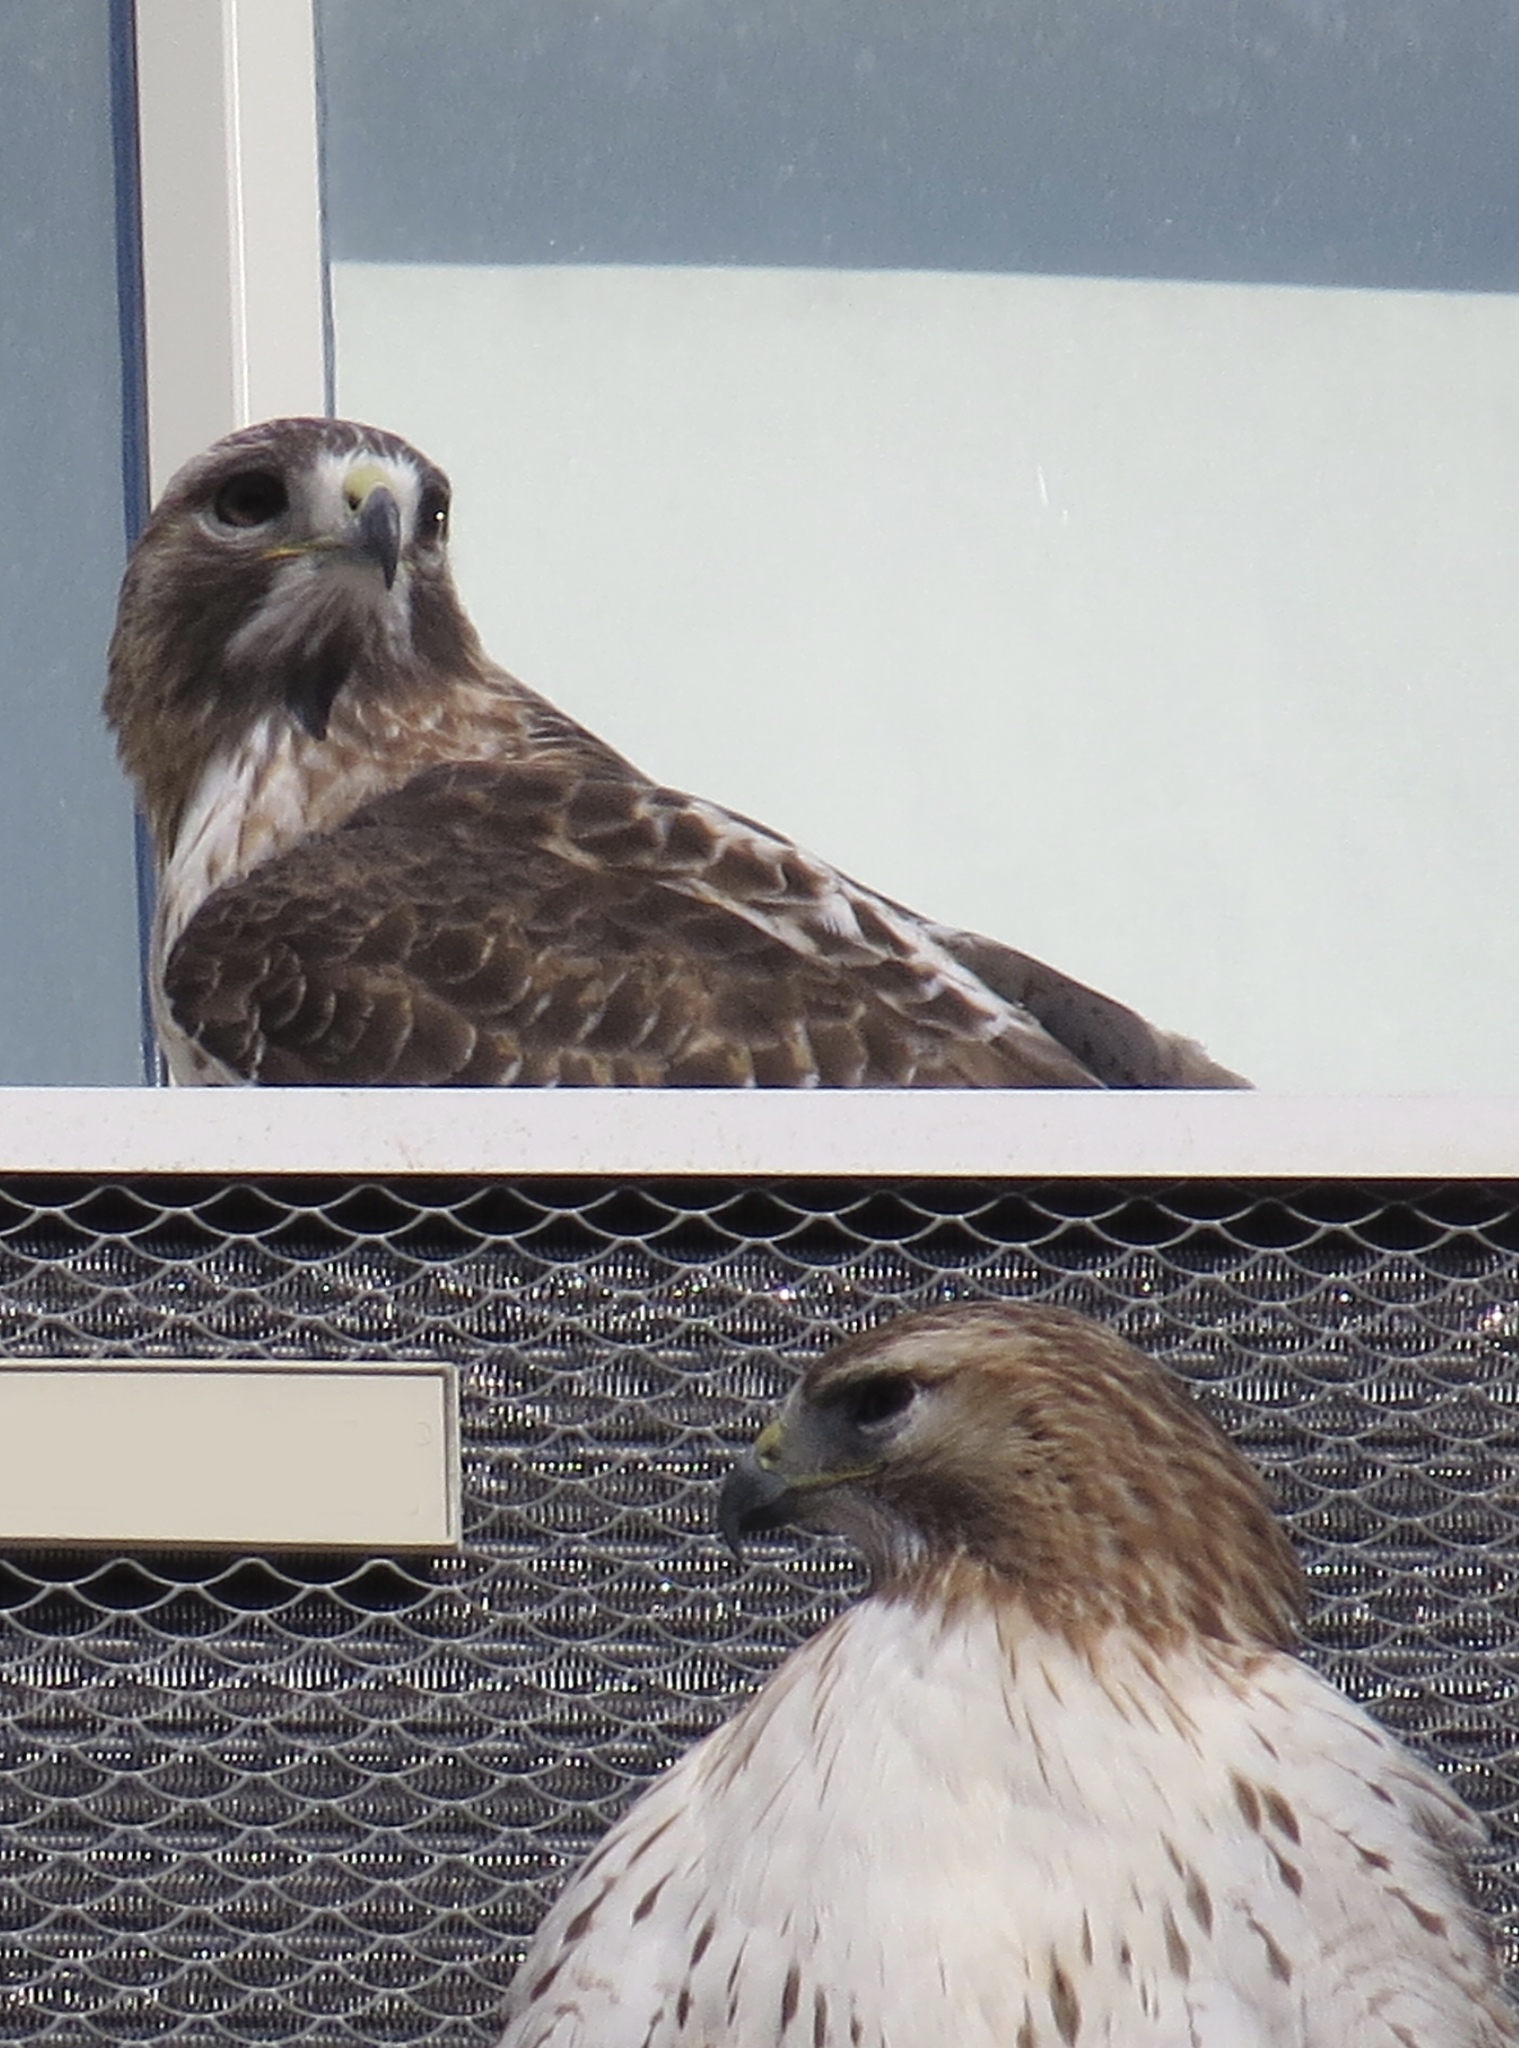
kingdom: Animalia
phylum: Chordata
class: Aves
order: Accipitriformes
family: Accipitridae
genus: Buteo
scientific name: Buteo jamaicensis
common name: Red-tailed hawk
